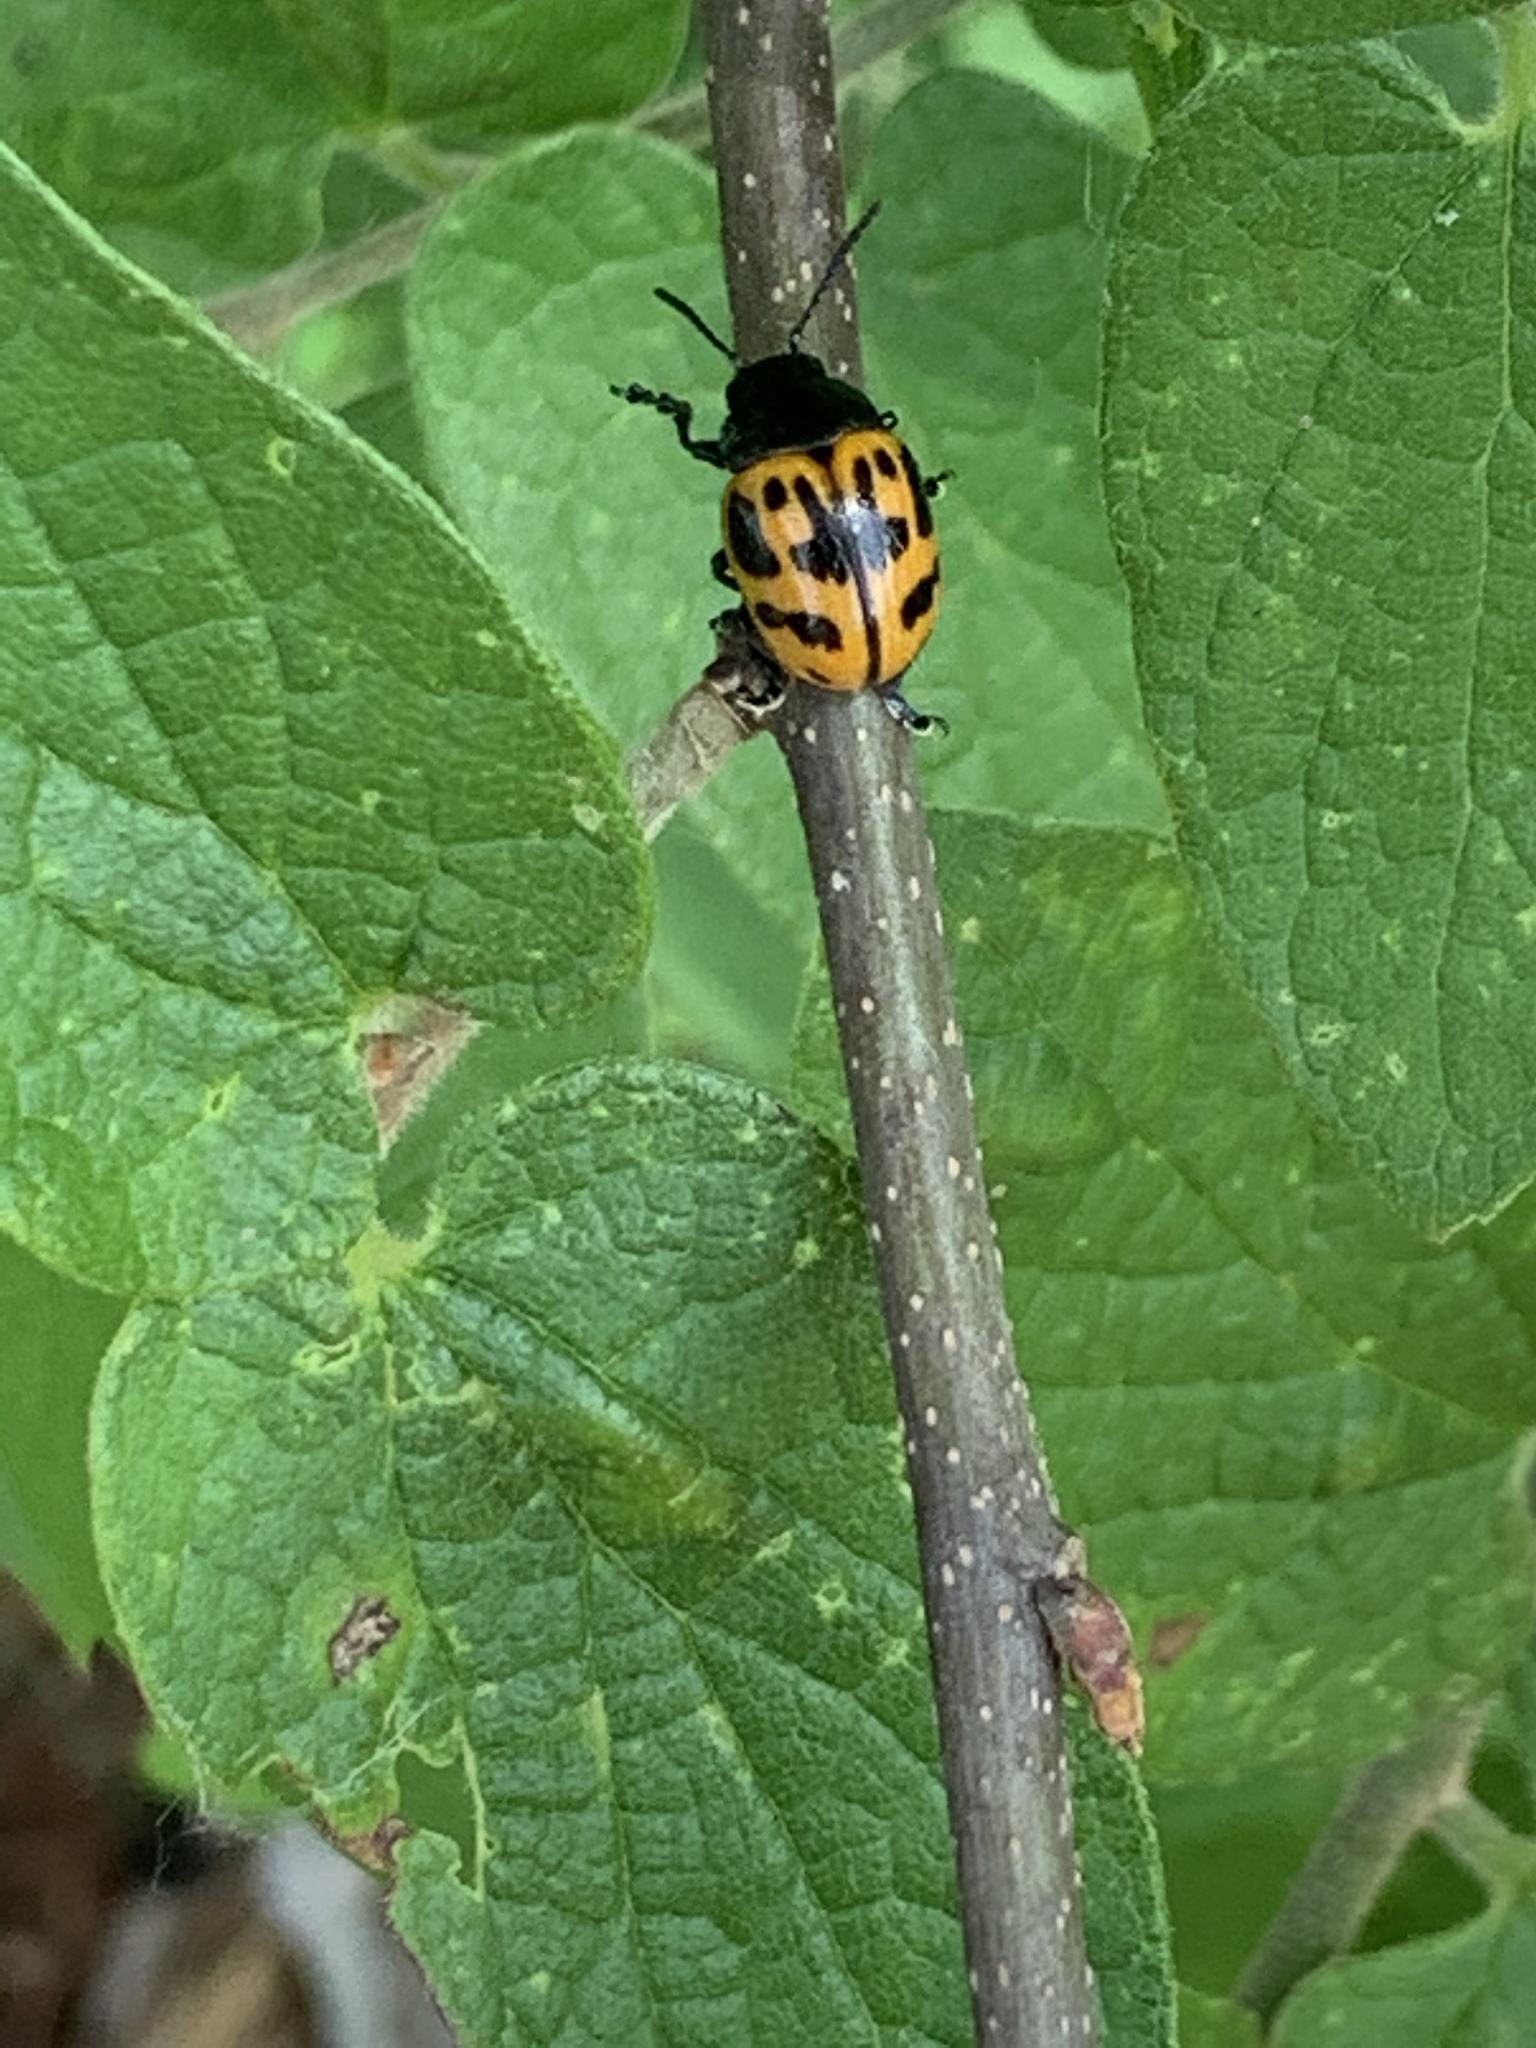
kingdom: Animalia
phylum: Arthropoda
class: Insecta
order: Coleoptera
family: Chrysomelidae
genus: Labidomera
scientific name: Labidomera clivicollis
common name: Swamp milkweed leaf beetle
